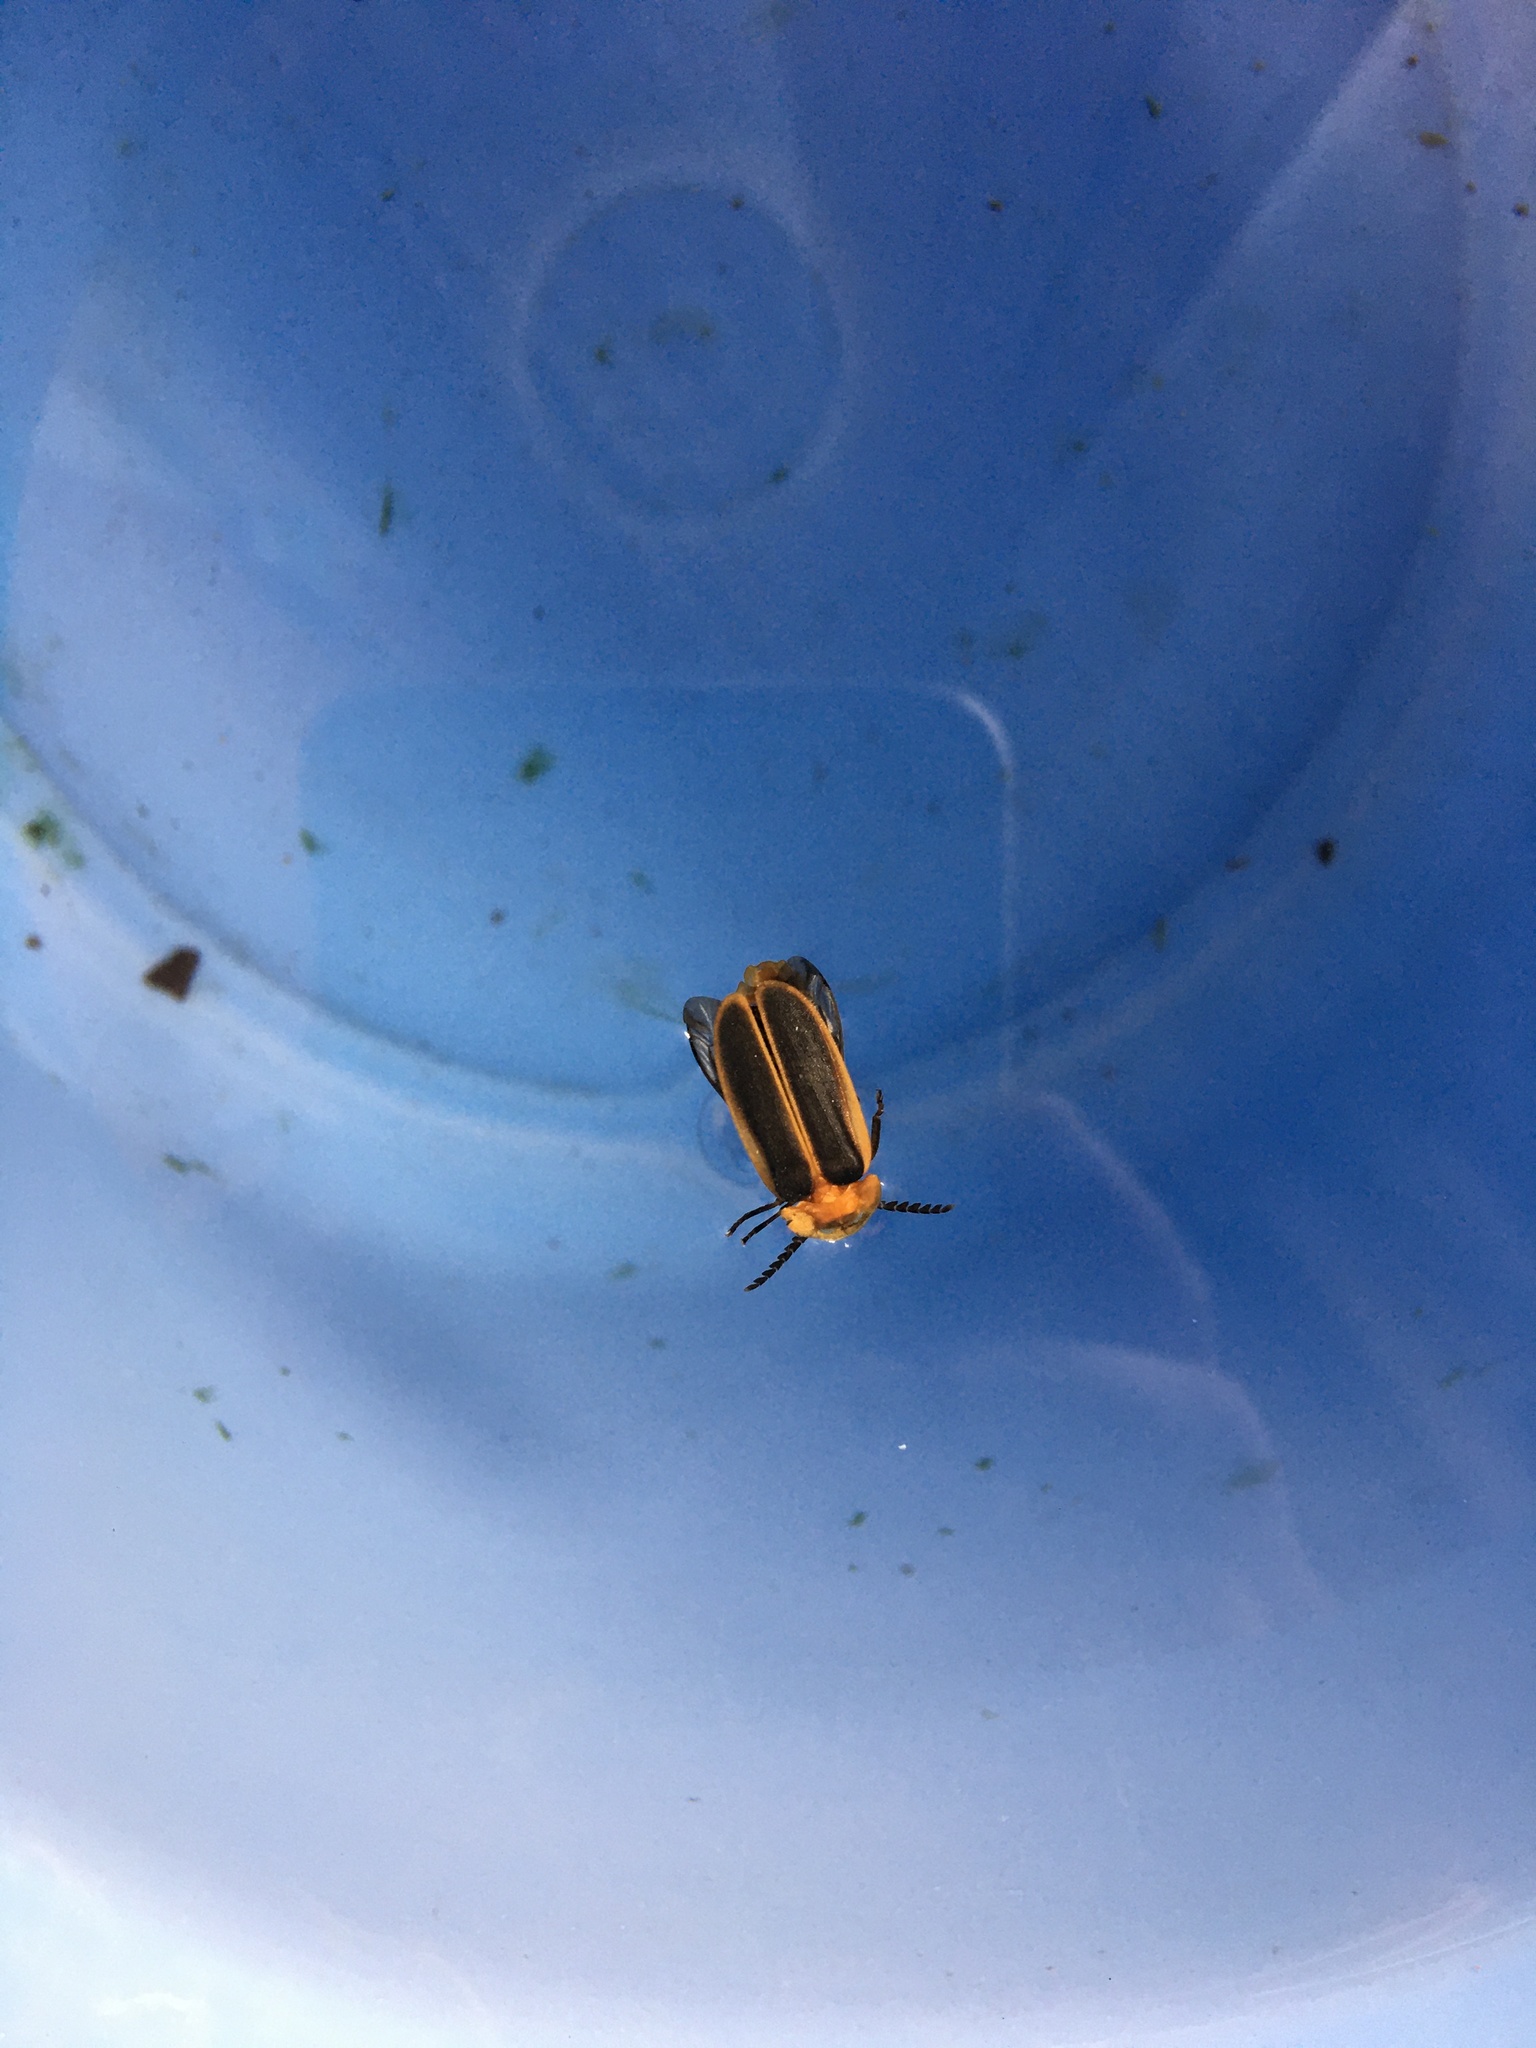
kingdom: Animalia
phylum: Arthropoda
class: Insecta
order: Coleoptera
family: Lampyridae
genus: Pyrocoelia
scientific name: Pyrocoelia analis
